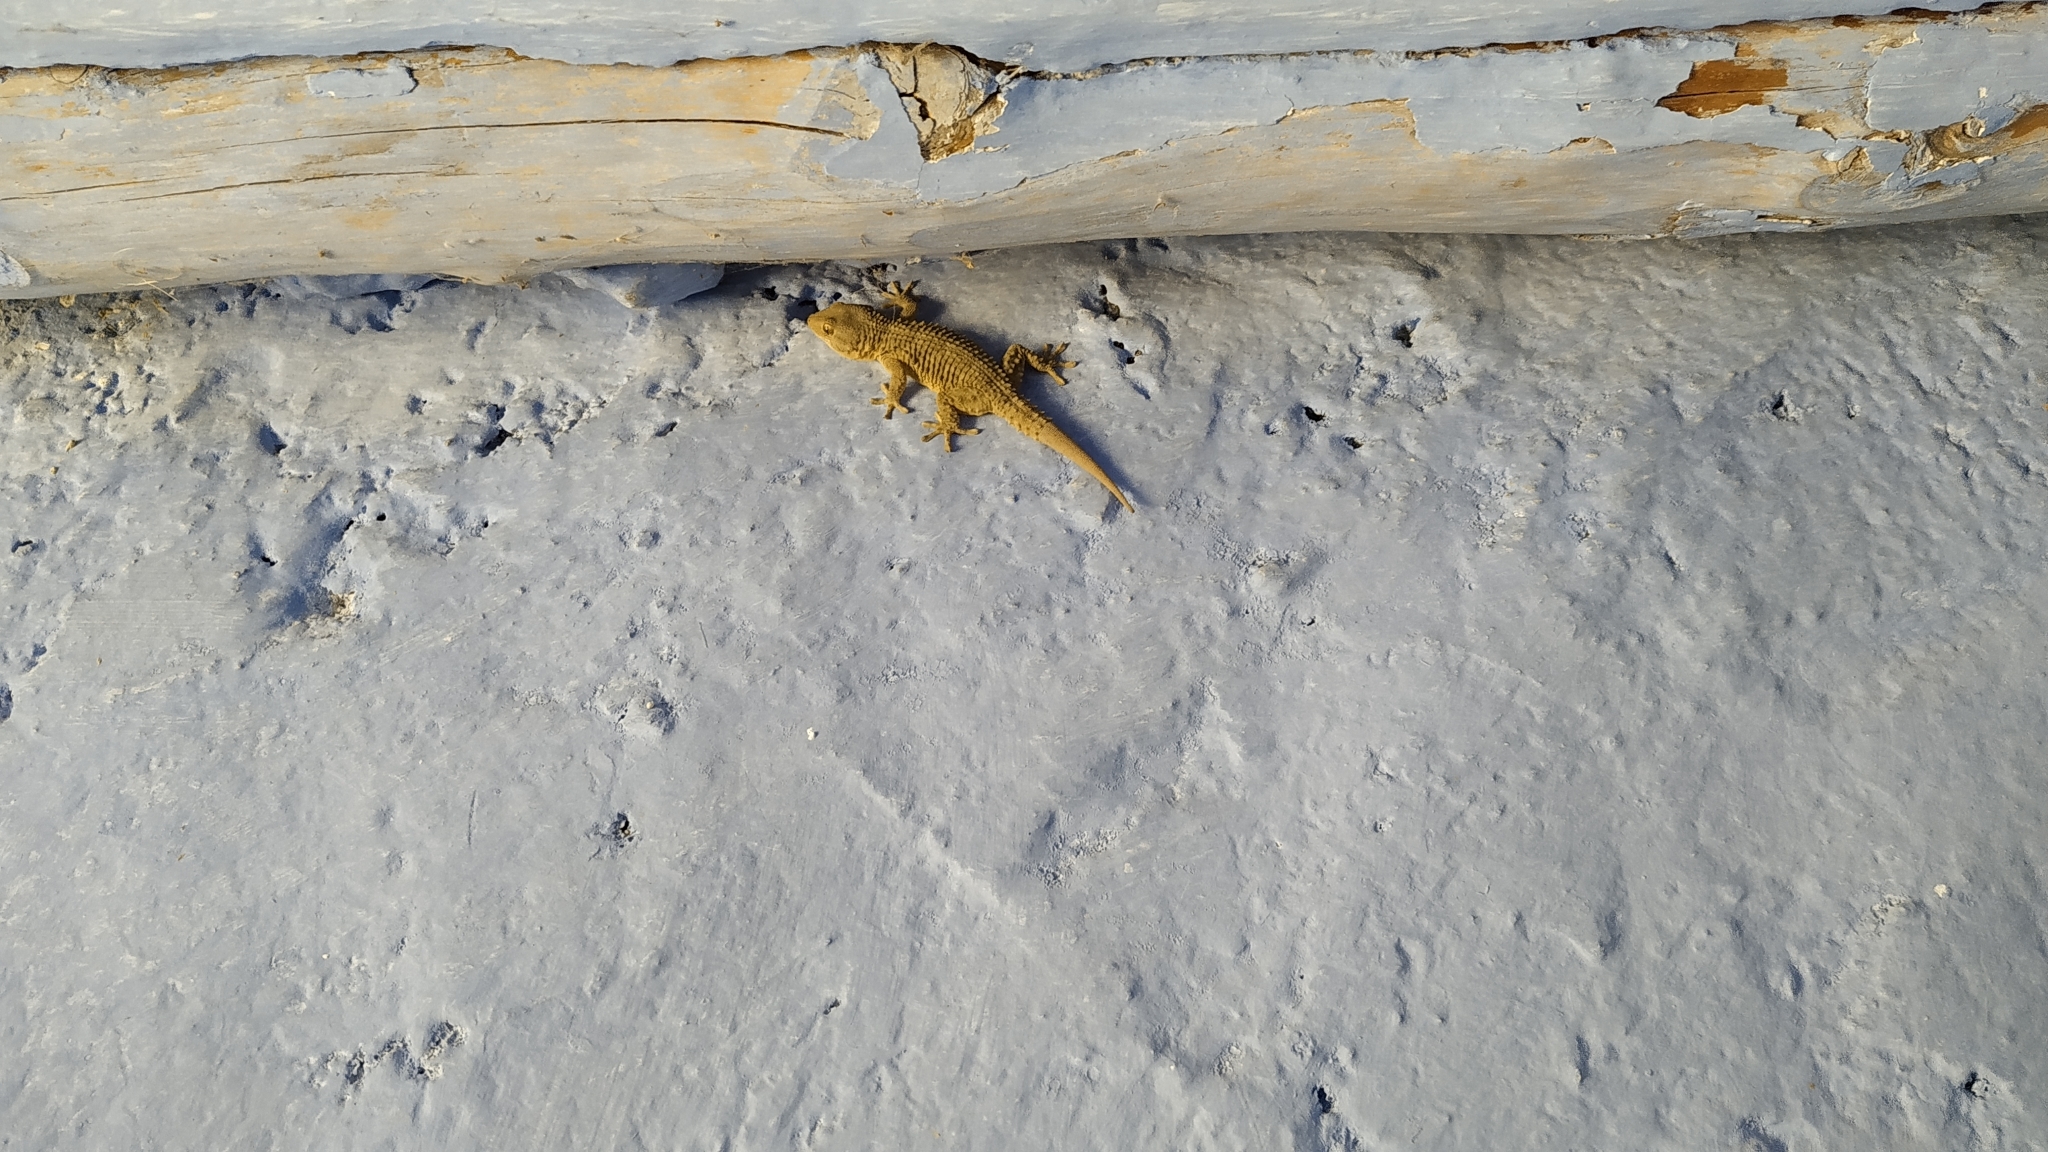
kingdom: Animalia
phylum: Chordata
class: Squamata
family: Phyllodactylidae
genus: Tarentola
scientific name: Tarentola mauritanica
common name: Moorish gecko
